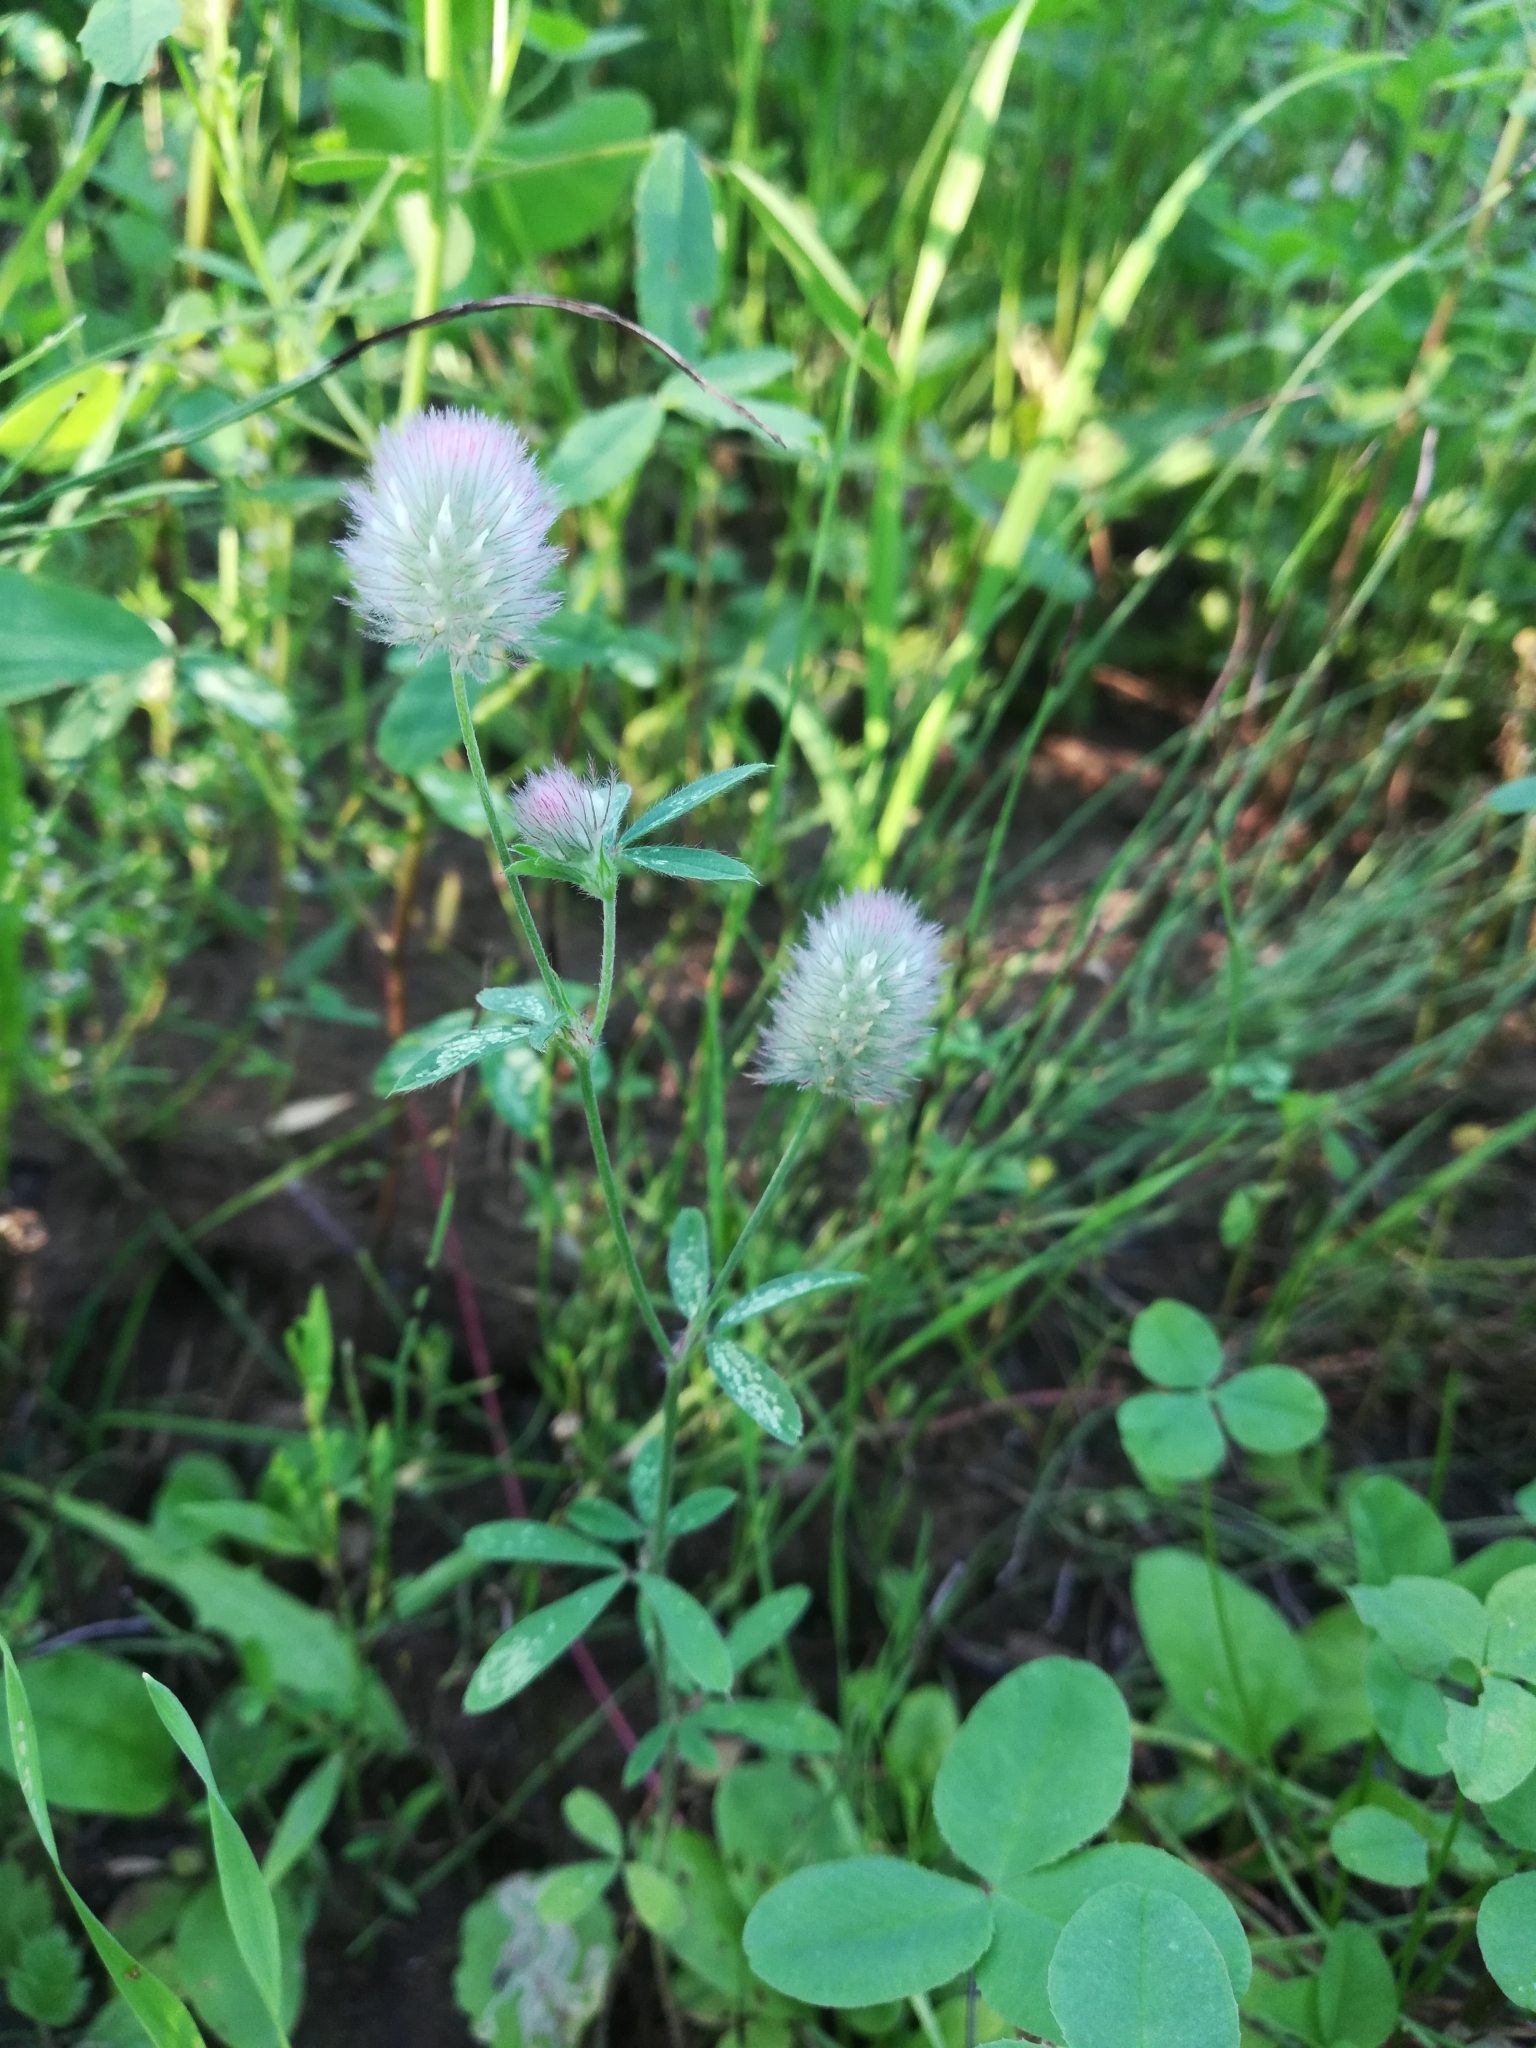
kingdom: Plantae
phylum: Tracheophyta
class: Magnoliopsida
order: Fabales
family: Fabaceae
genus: Trifolium
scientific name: Trifolium arvense
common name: Hare's-foot clover
